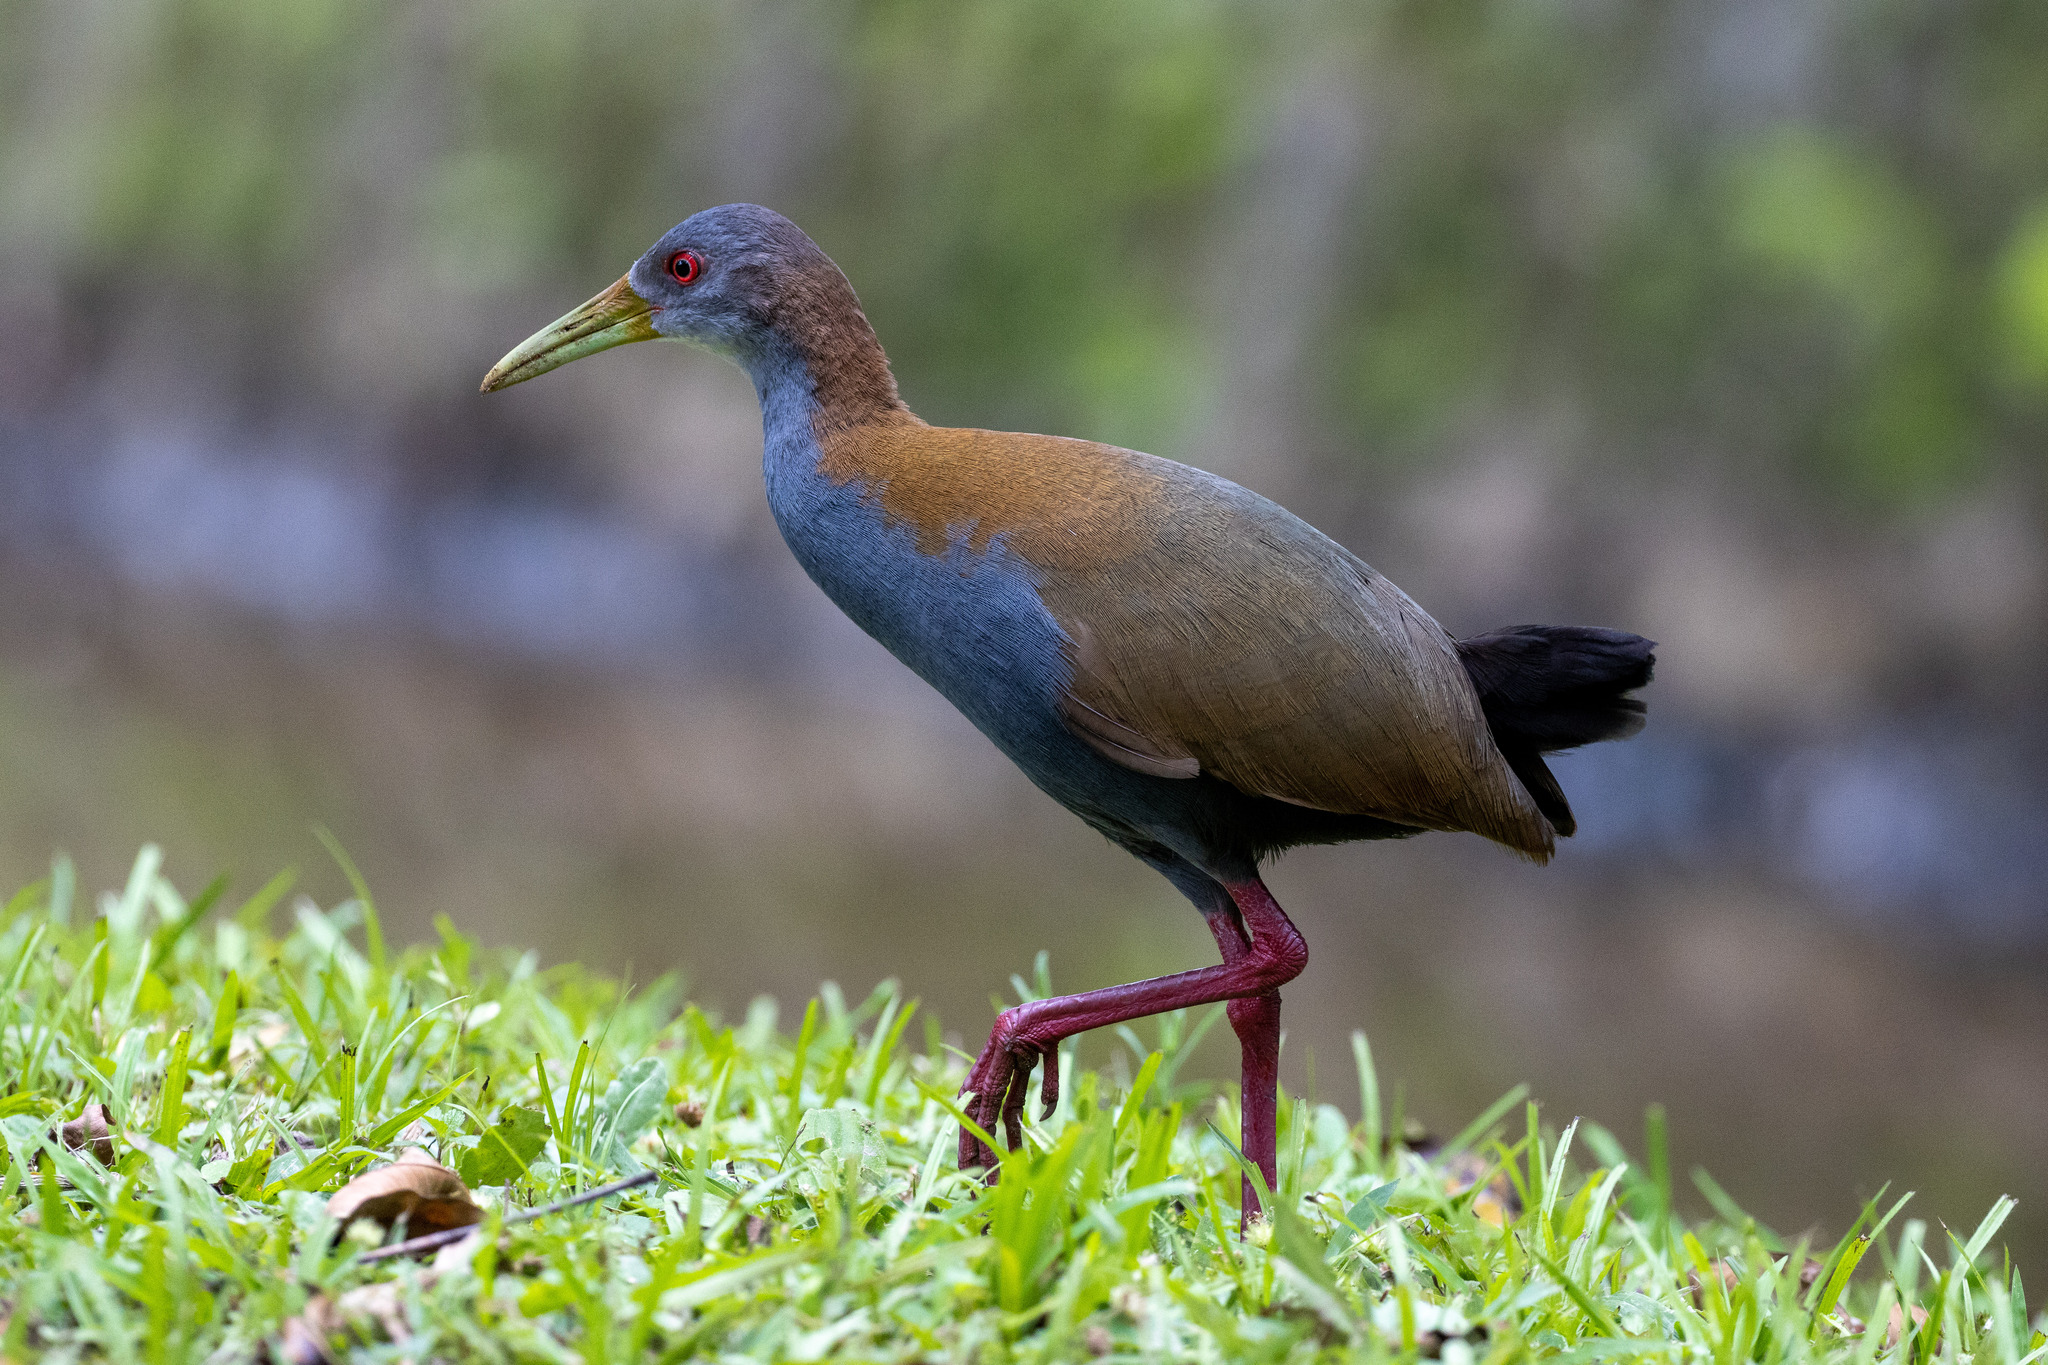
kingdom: Animalia
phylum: Chordata
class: Aves
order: Gruiformes
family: Rallidae
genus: Aramides
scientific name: Aramides saracura
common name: Slaty-breasted wood rail
